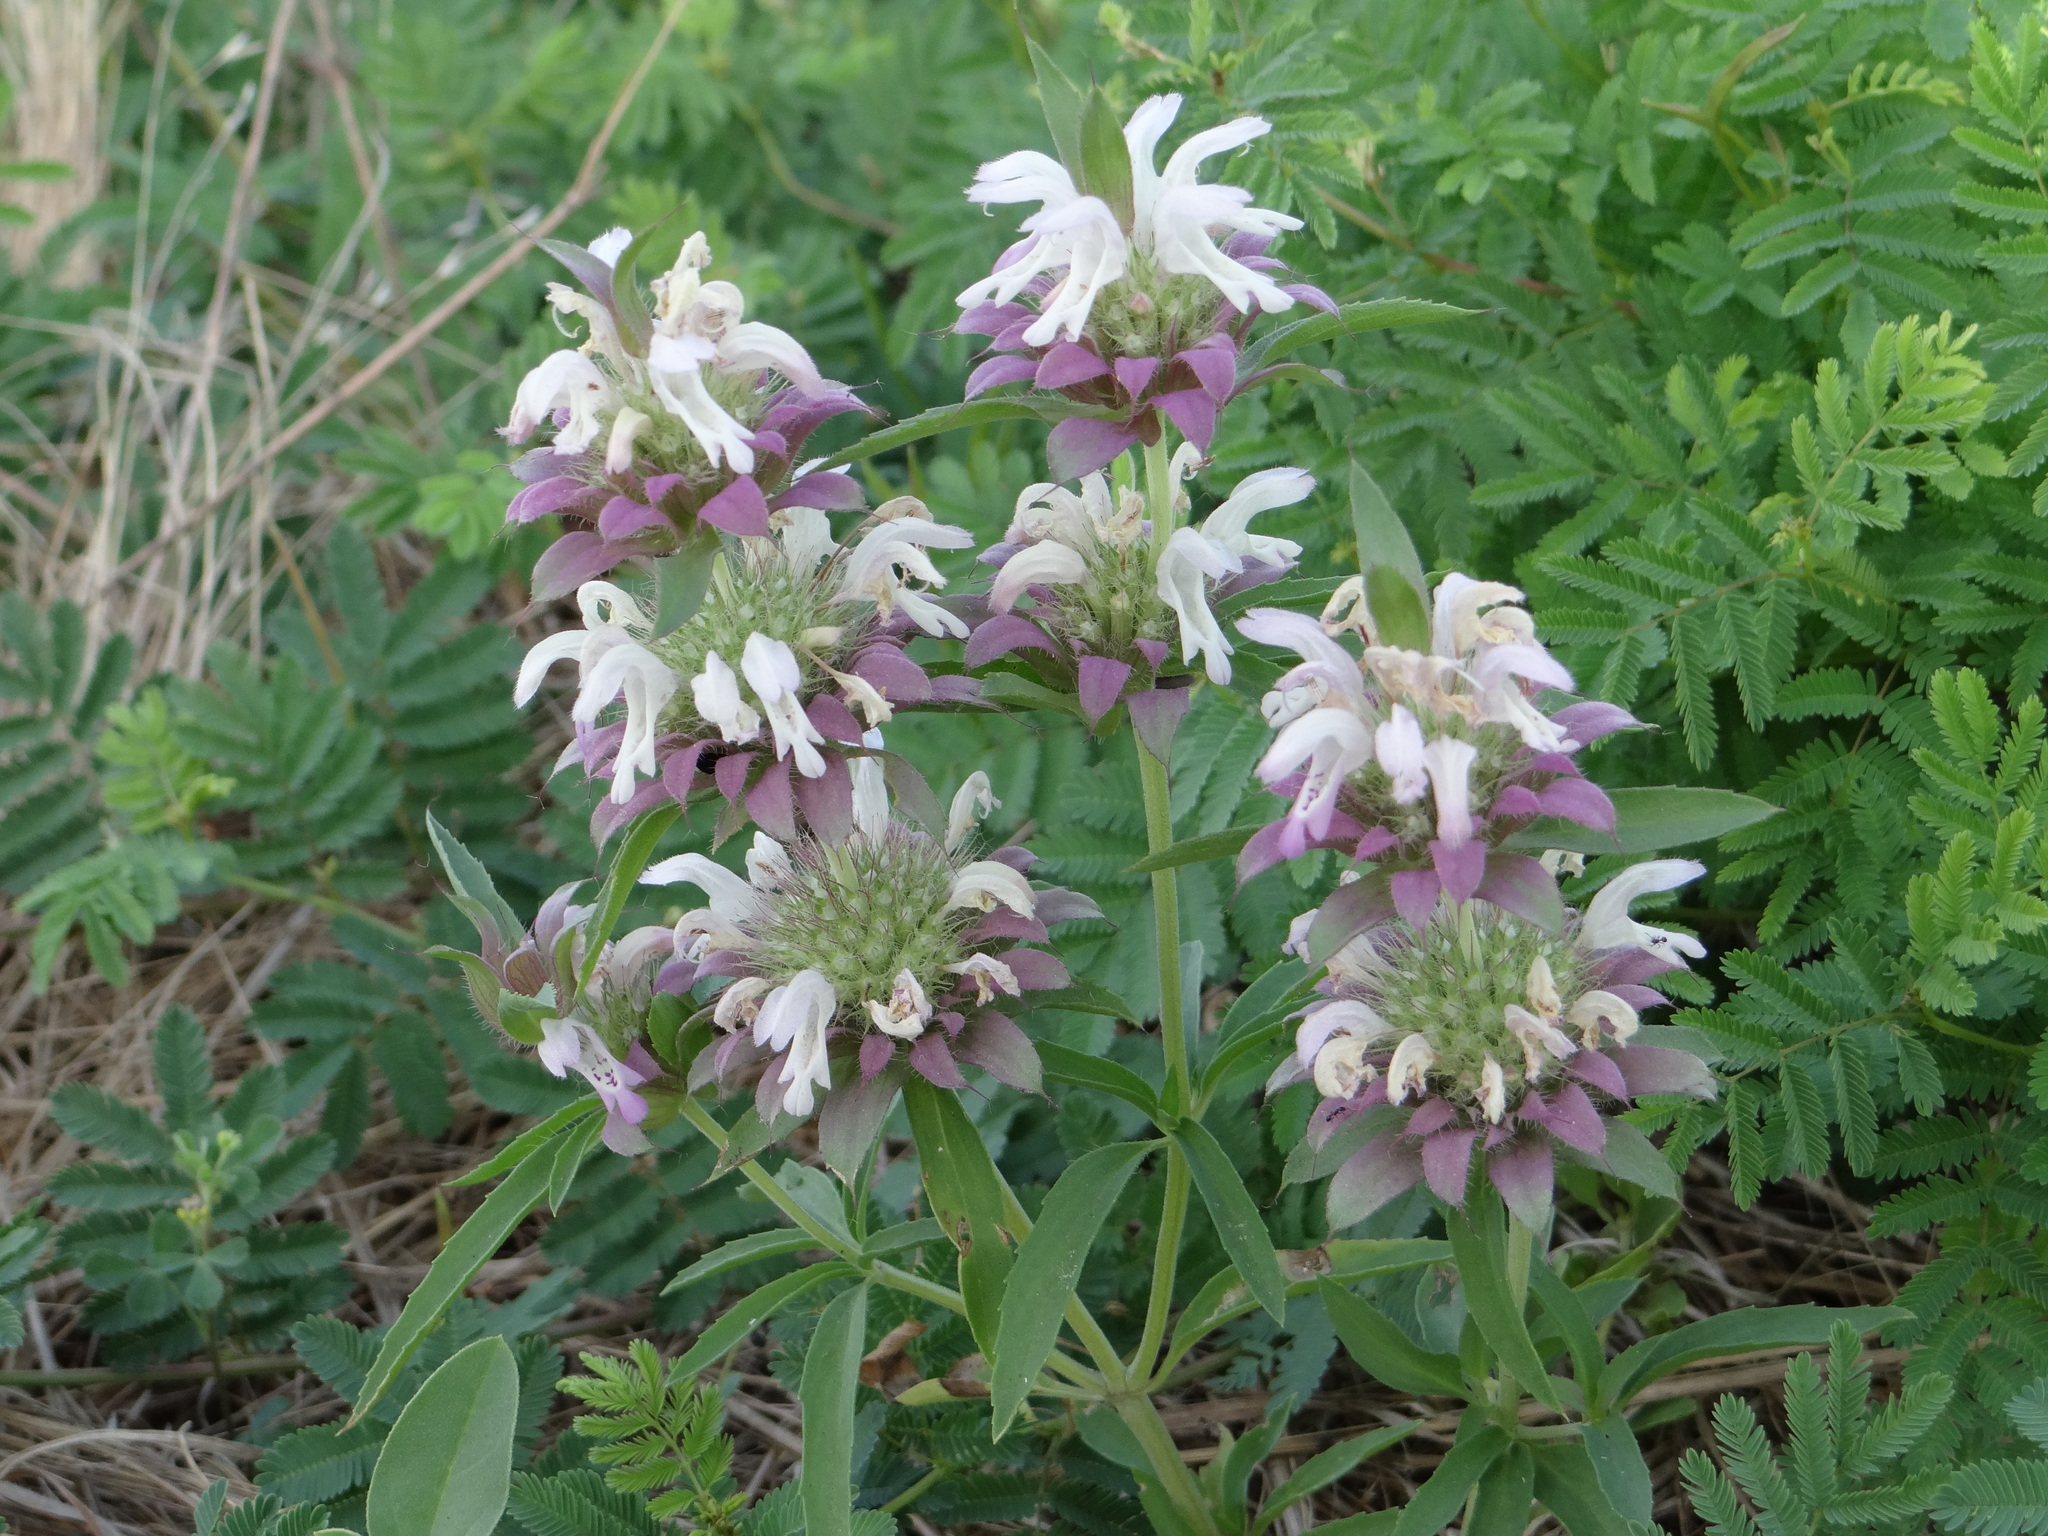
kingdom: Plantae
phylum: Tracheophyta
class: Magnoliopsida
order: Lamiales
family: Lamiaceae
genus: Monarda
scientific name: Monarda citriodora
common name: Lemon beebalm
